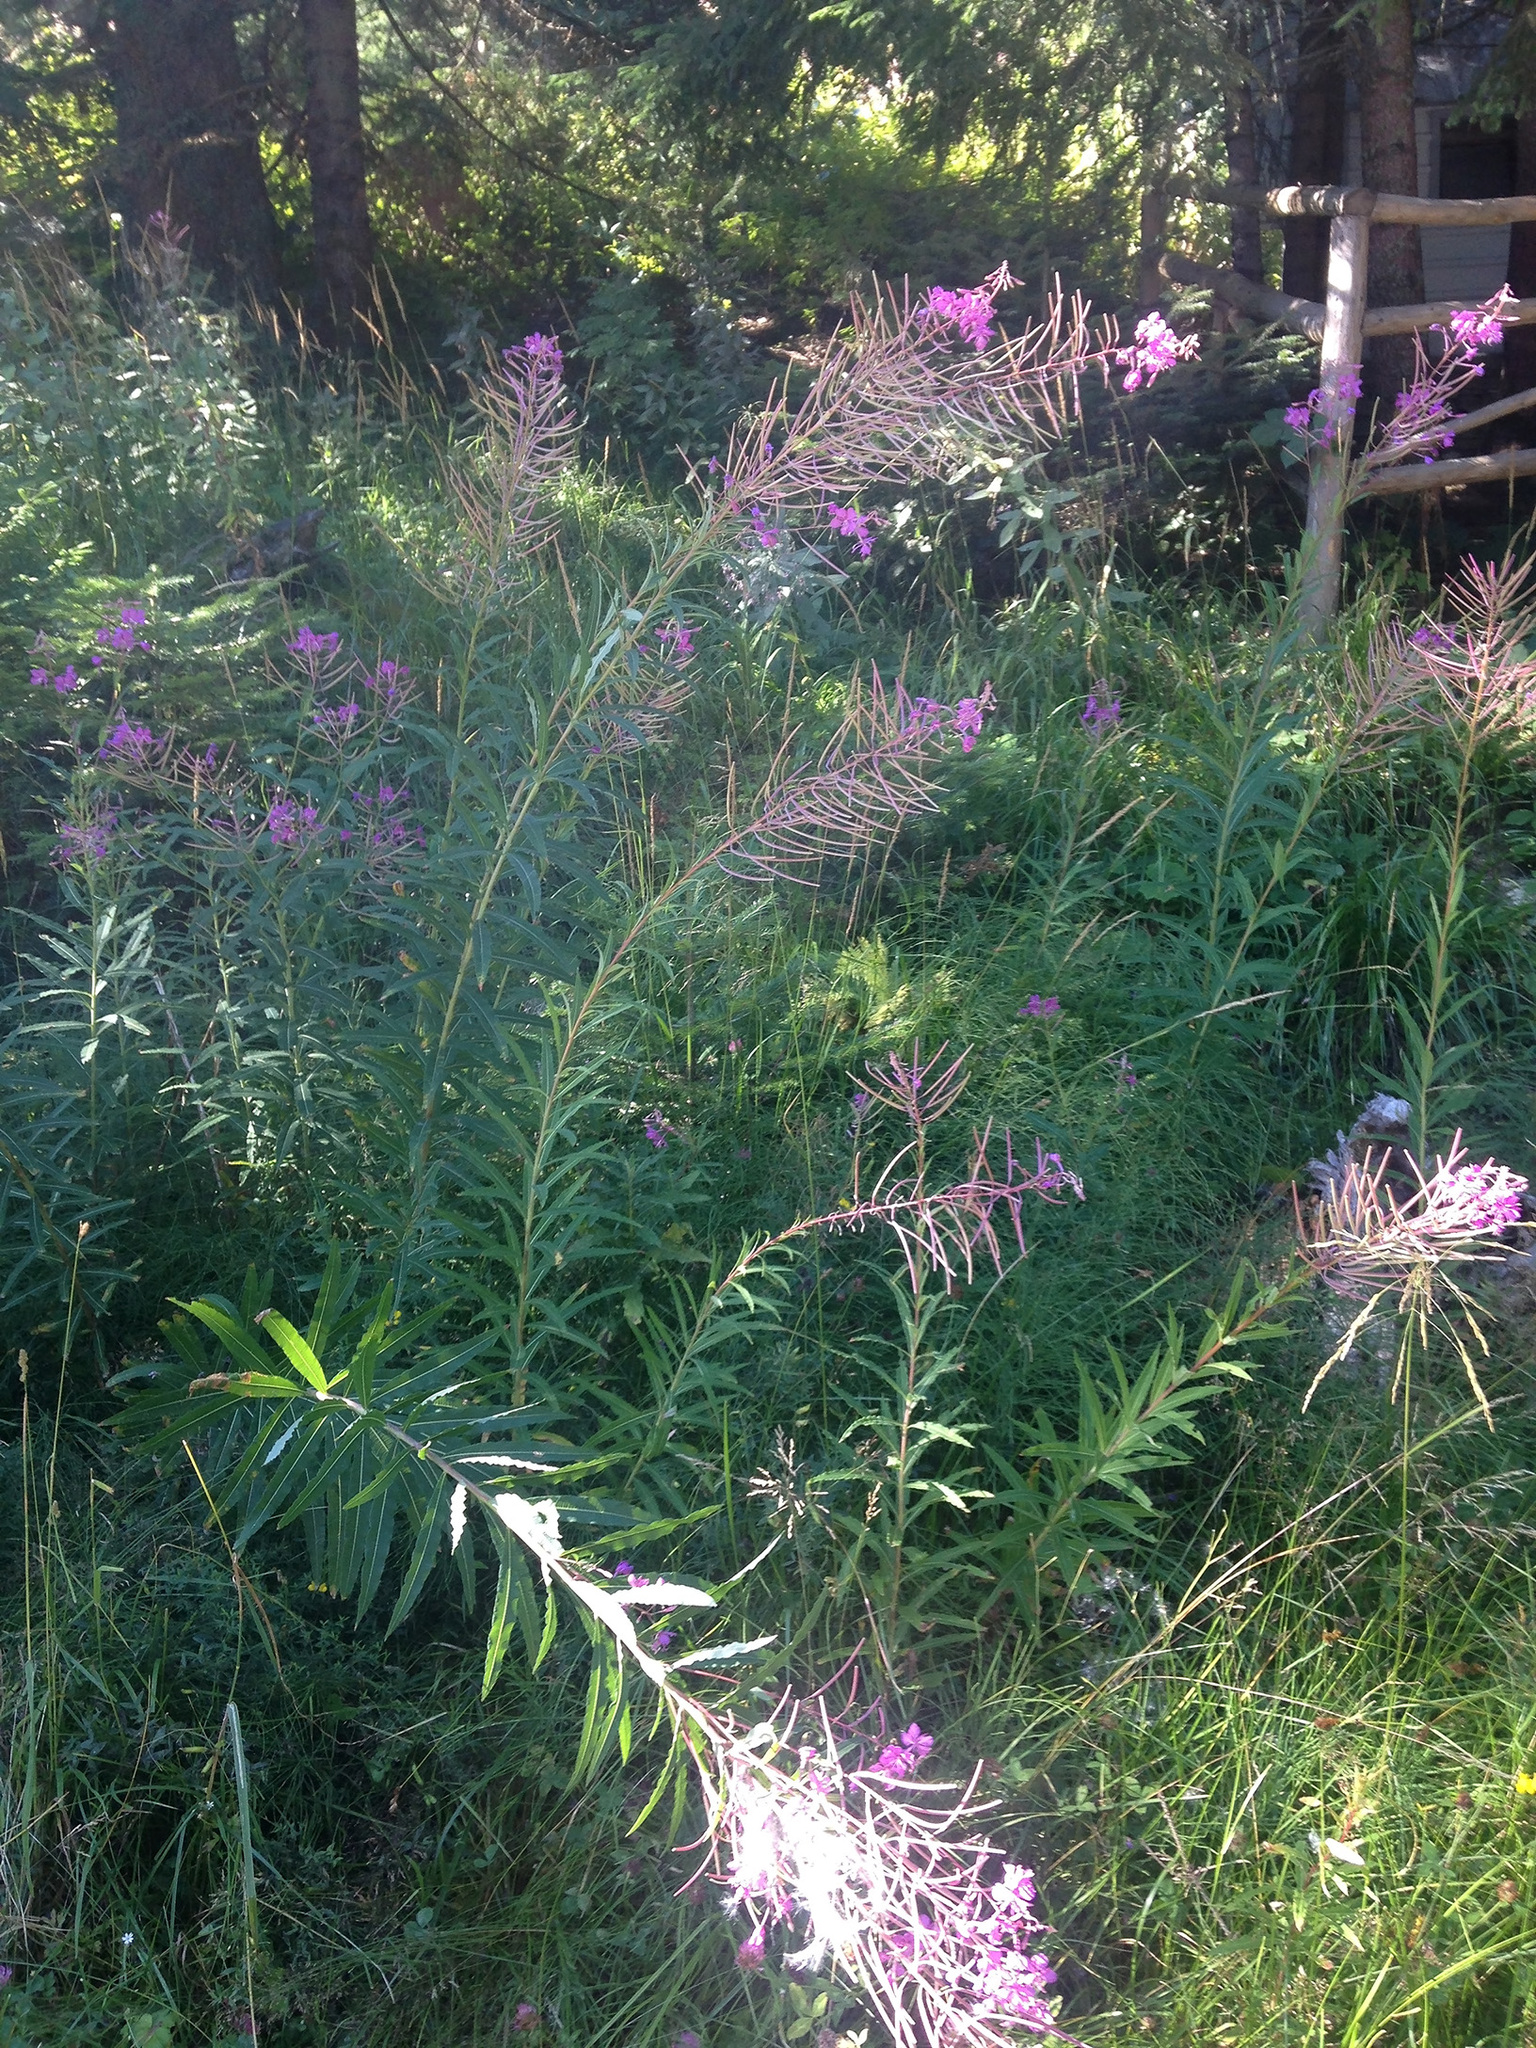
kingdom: Plantae
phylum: Tracheophyta
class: Magnoliopsida
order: Myrtales
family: Onagraceae
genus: Chamaenerion
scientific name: Chamaenerion angustifolium
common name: Fireweed
